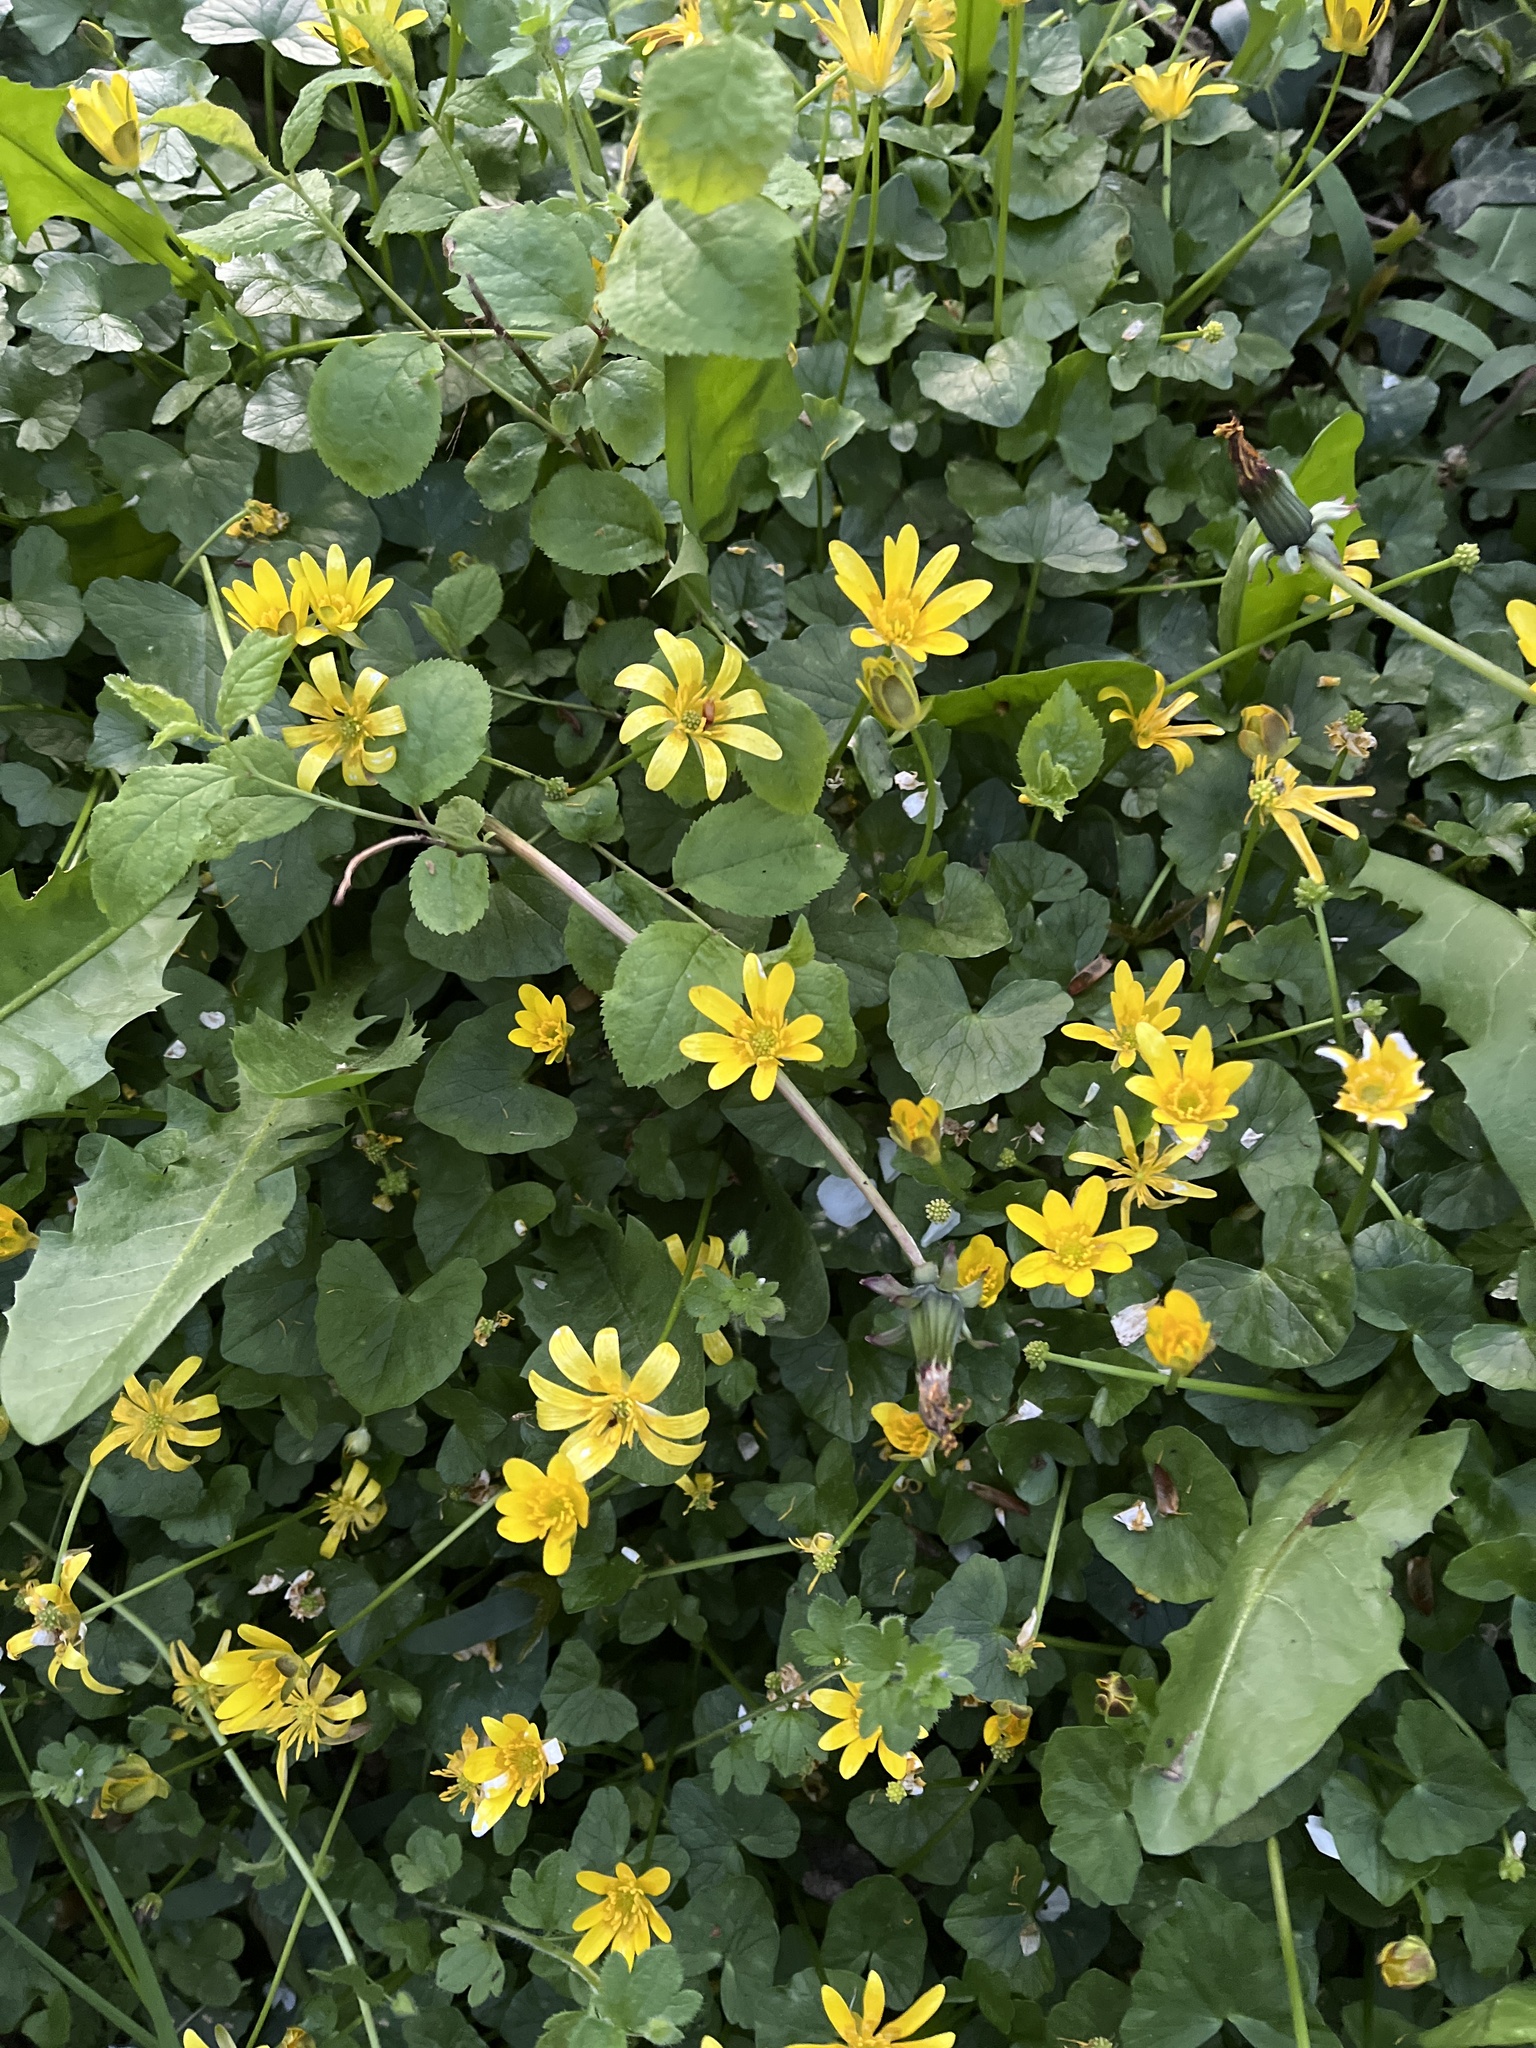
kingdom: Plantae
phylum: Tracheophyta
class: Magnoliopsida
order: Ranunculales
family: Ranunculaceae
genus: Ficaria
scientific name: Ficaria verna
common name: Lesser celandine
